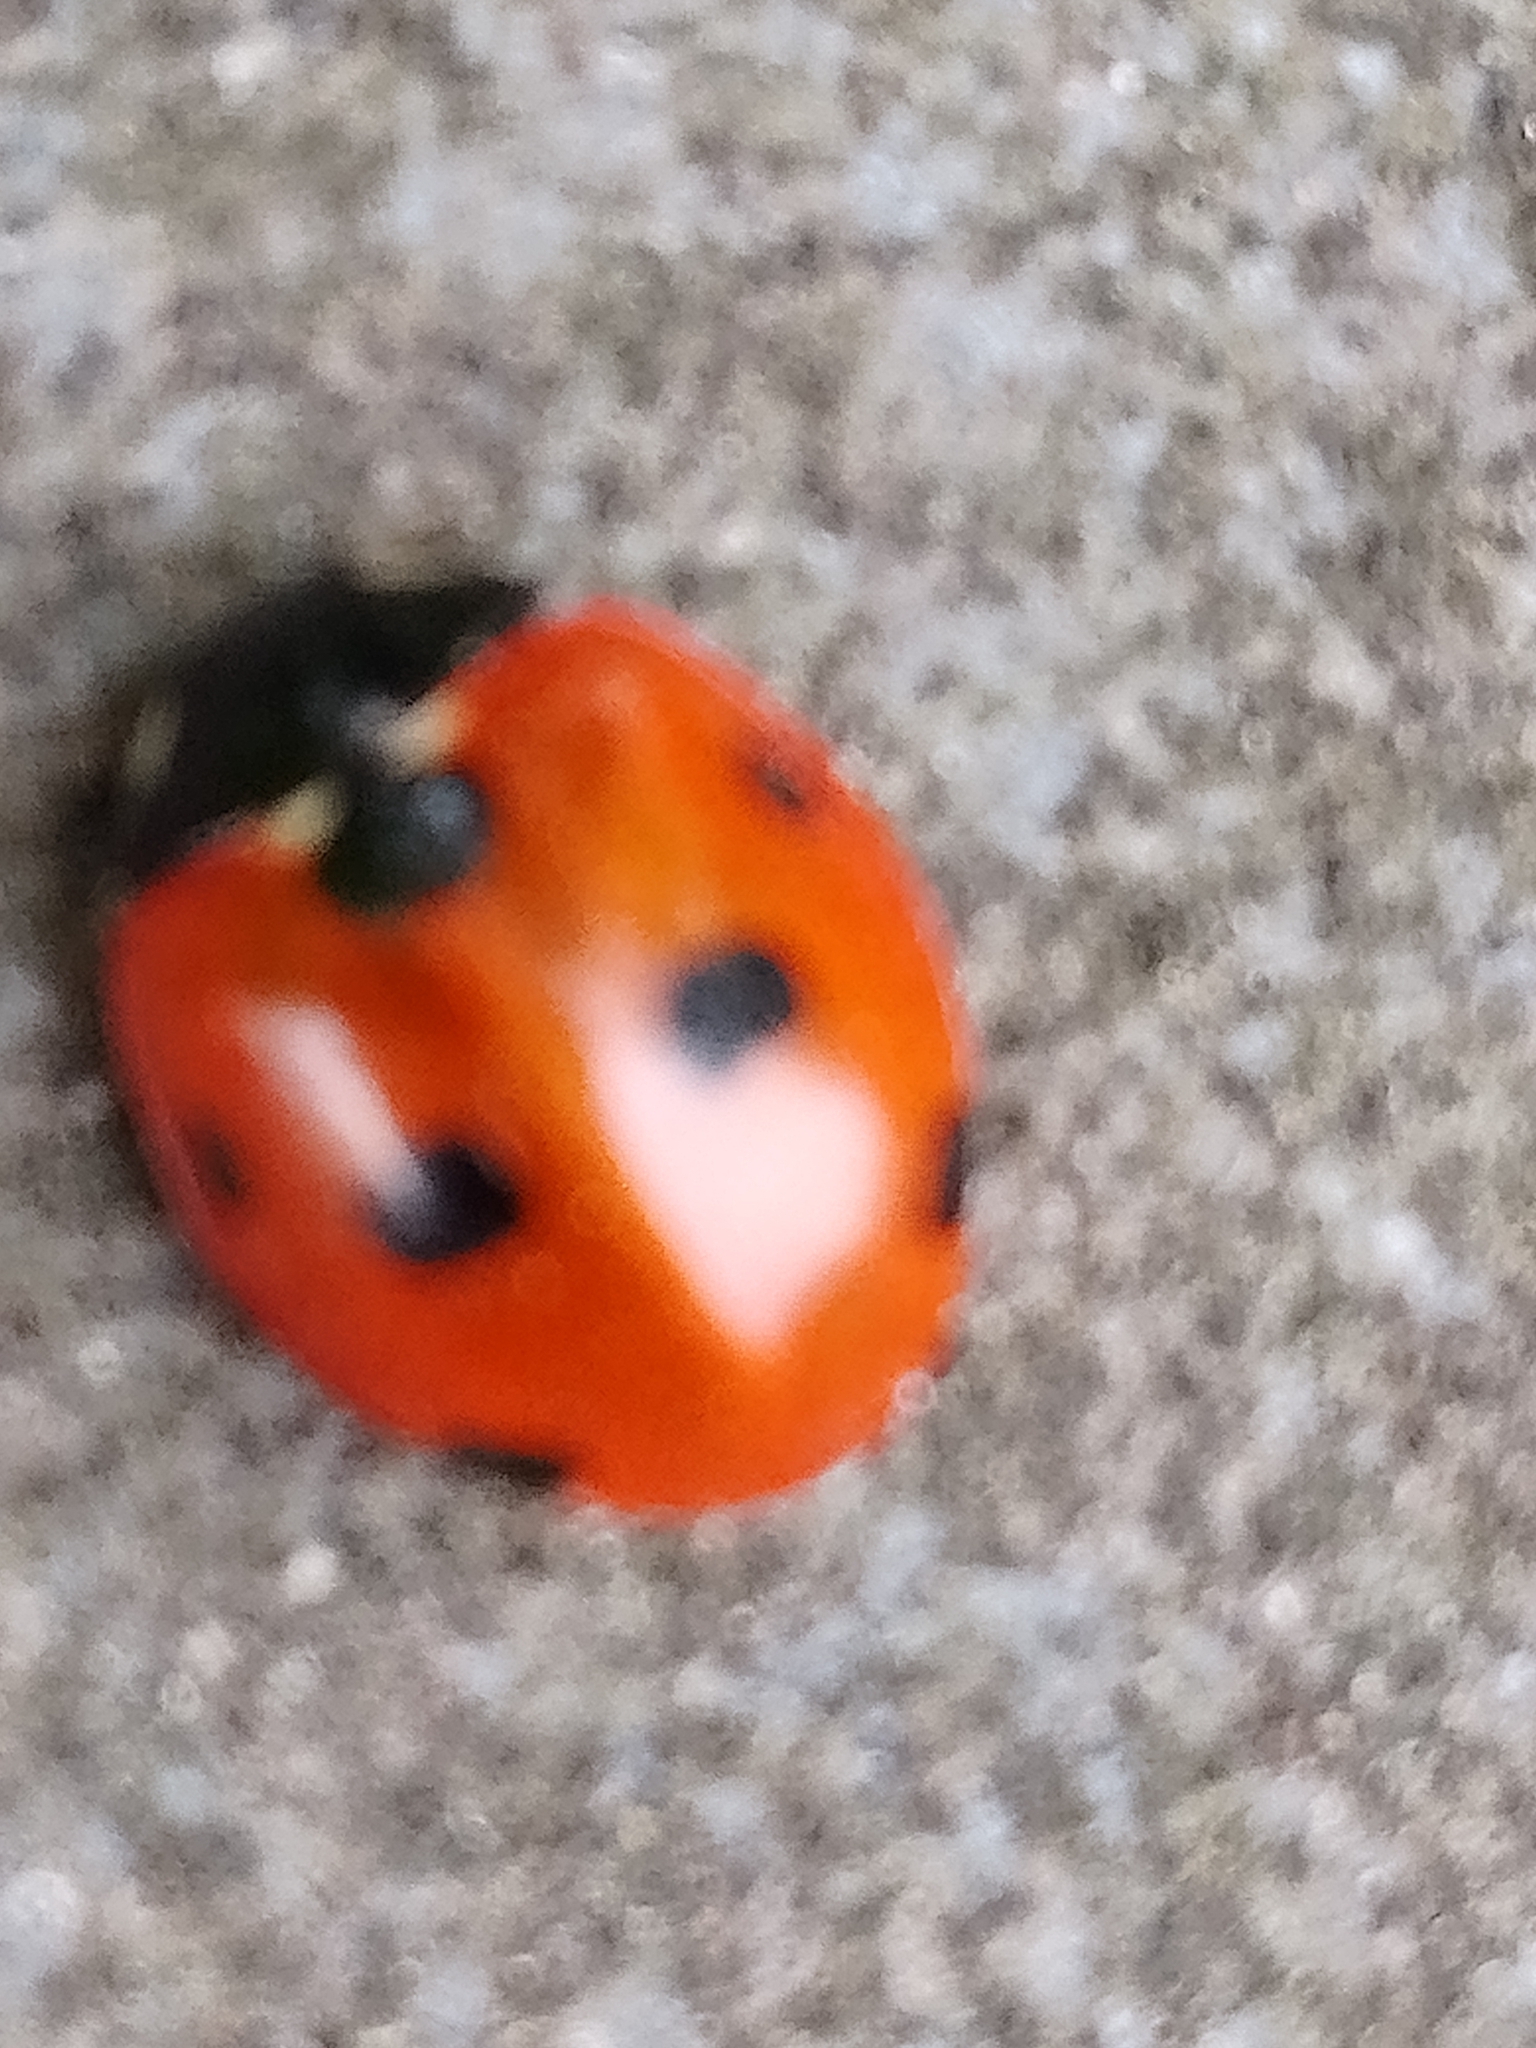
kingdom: Animalia
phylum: Arthropoda
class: Insecta
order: Coleoptera
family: Coccinellidae
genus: Coccinella
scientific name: Coccinella septempunctata
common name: Sevenspotted lady beetle
